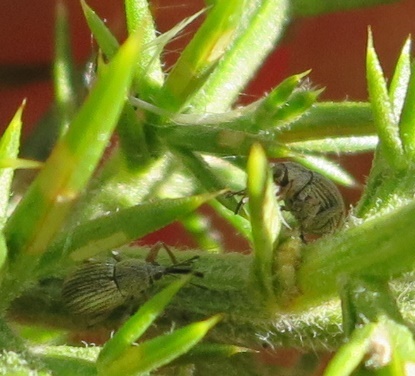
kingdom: Animalia
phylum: Arthropoda
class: Insecta
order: Coleoptera
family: Brentidae
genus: Exapion
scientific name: Exapion ulicis
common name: Gorse seed weevil
